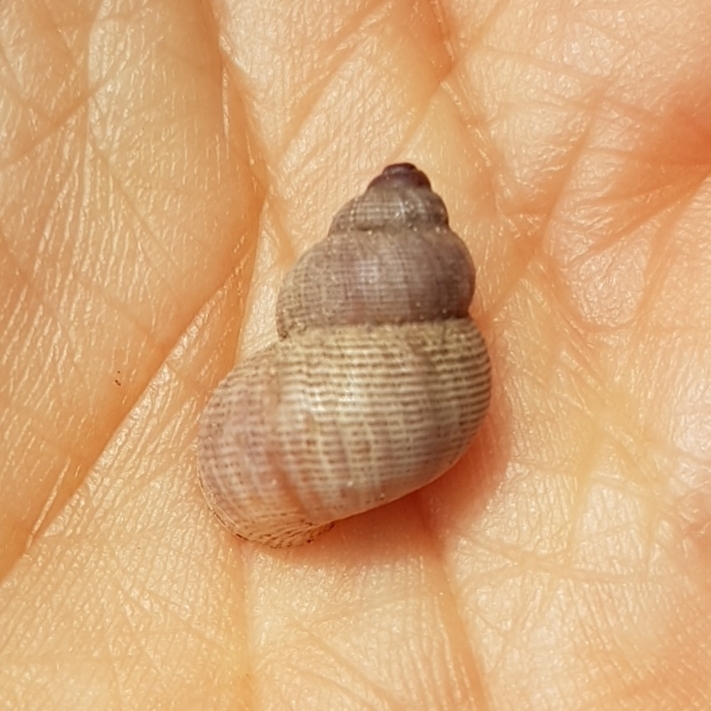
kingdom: Animalia
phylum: Mollusca
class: Gastropoda
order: Littorinimorpha
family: Pomatiidae
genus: Pomatias
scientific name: Pomatias elegans
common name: Red-mouthed snail
